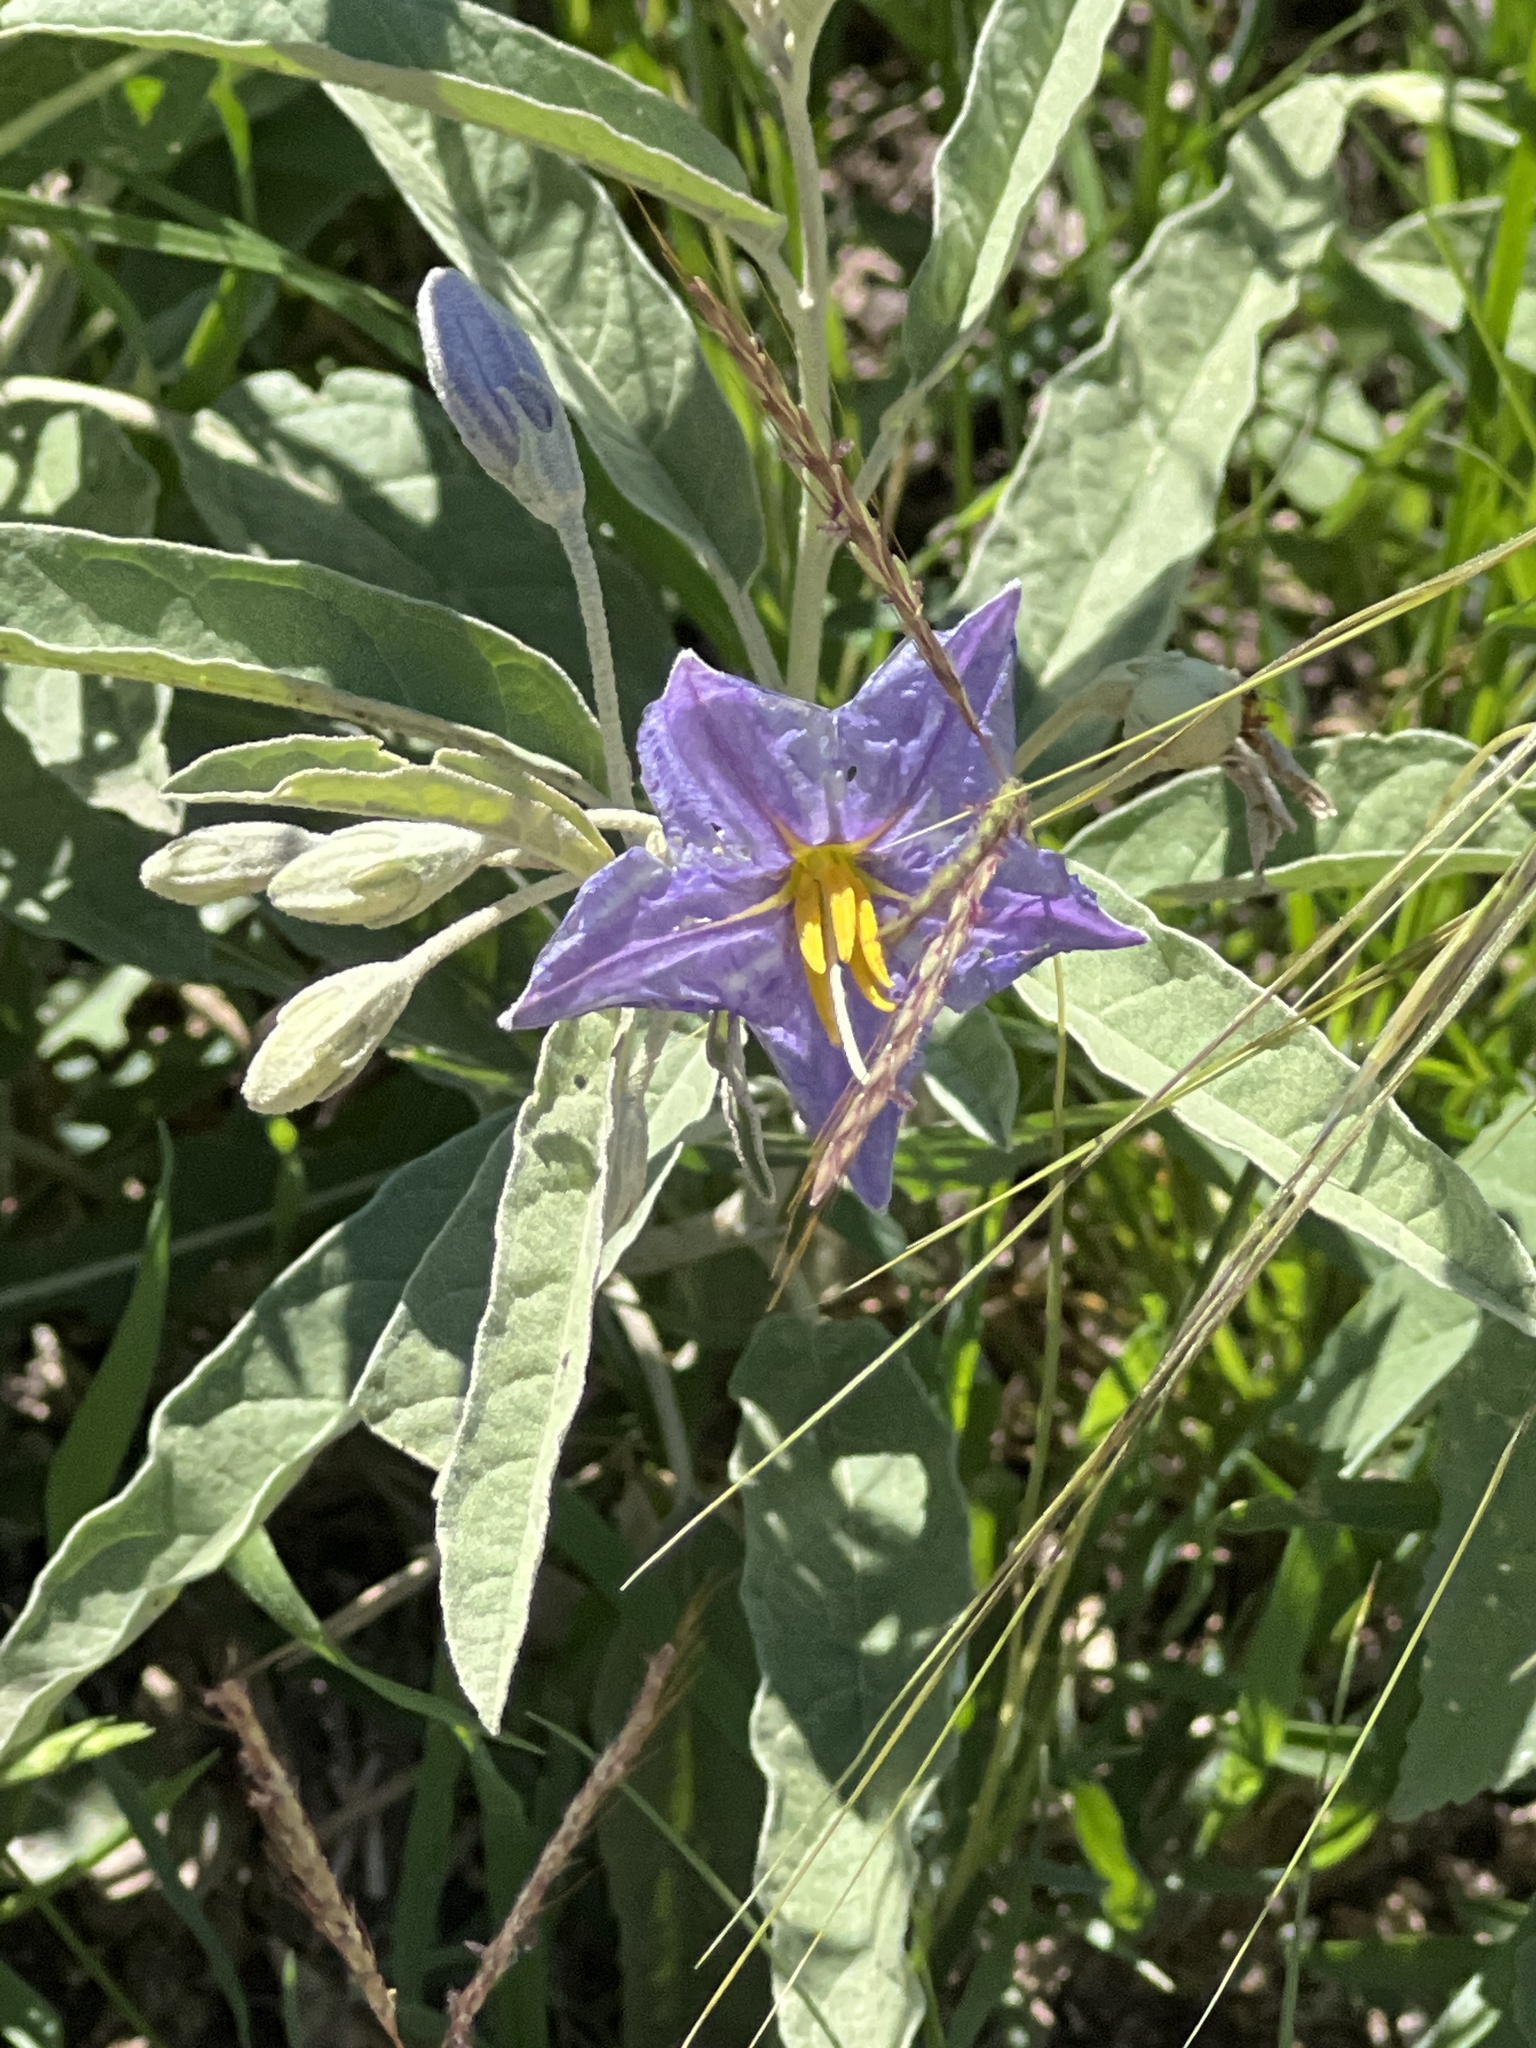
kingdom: Plantae
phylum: Tracheophyta
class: Magnoliopsida
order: Solanales
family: Solanaceae
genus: Solanum
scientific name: Solanum elaeagnifolium
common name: Silverleaf nightshade
